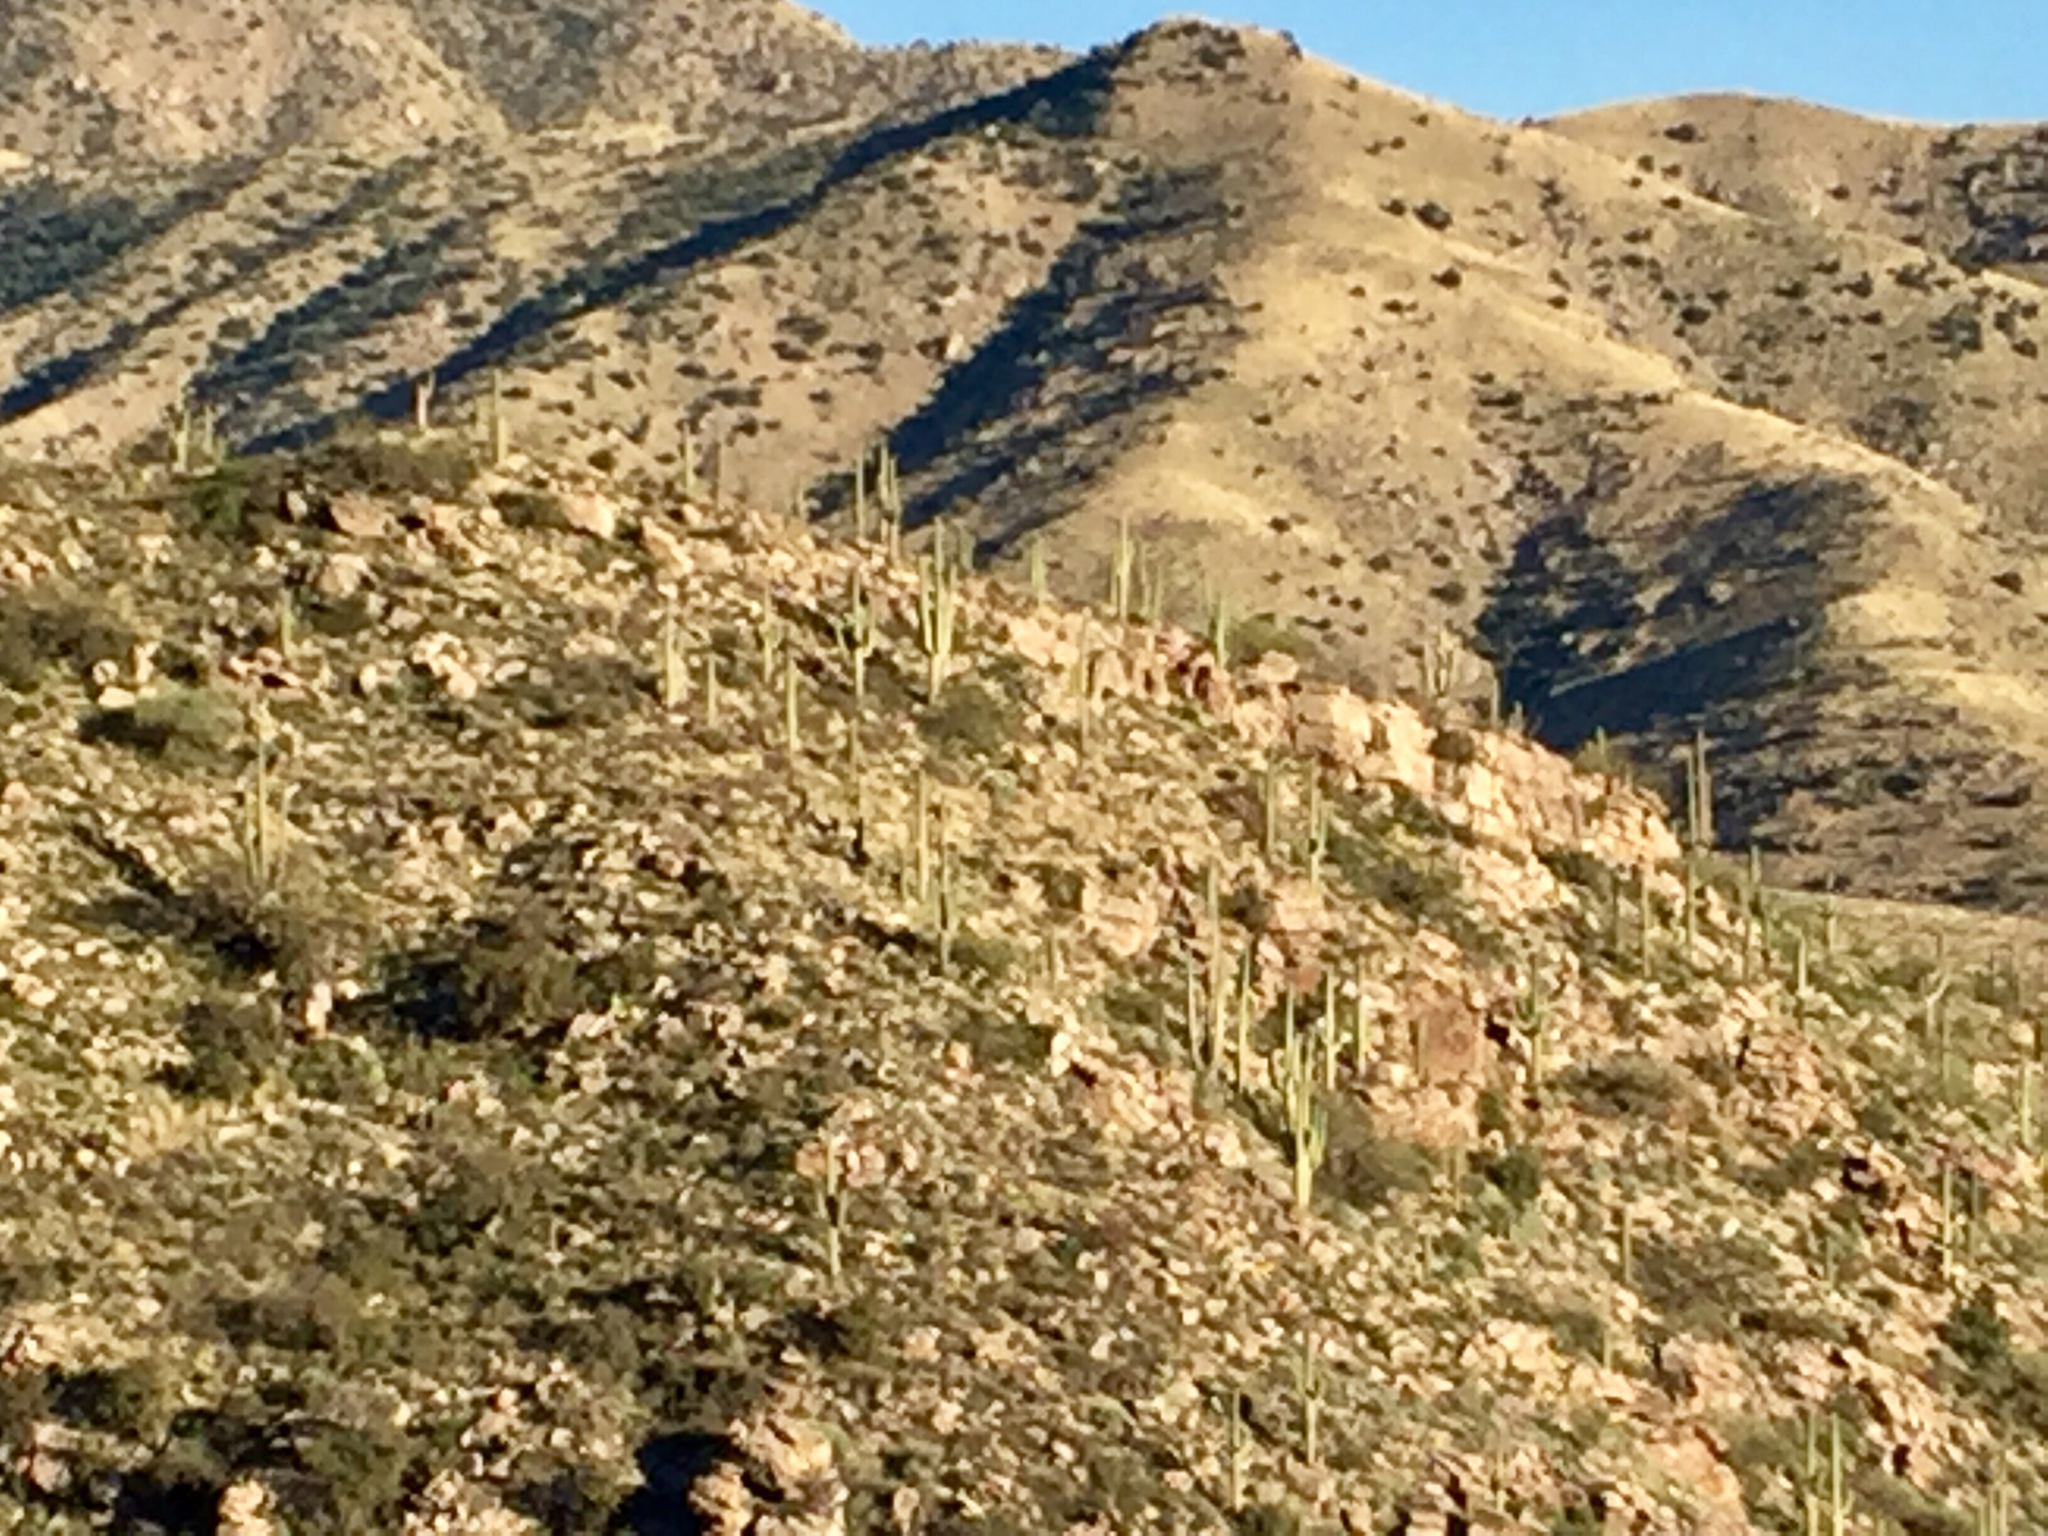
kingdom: Plantae
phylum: Tracheophyta
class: Magnoliopsida
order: Caryophyllales
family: Cactaceae
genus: Carnegiea
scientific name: Carnegiea gigantea
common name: Saguaro
